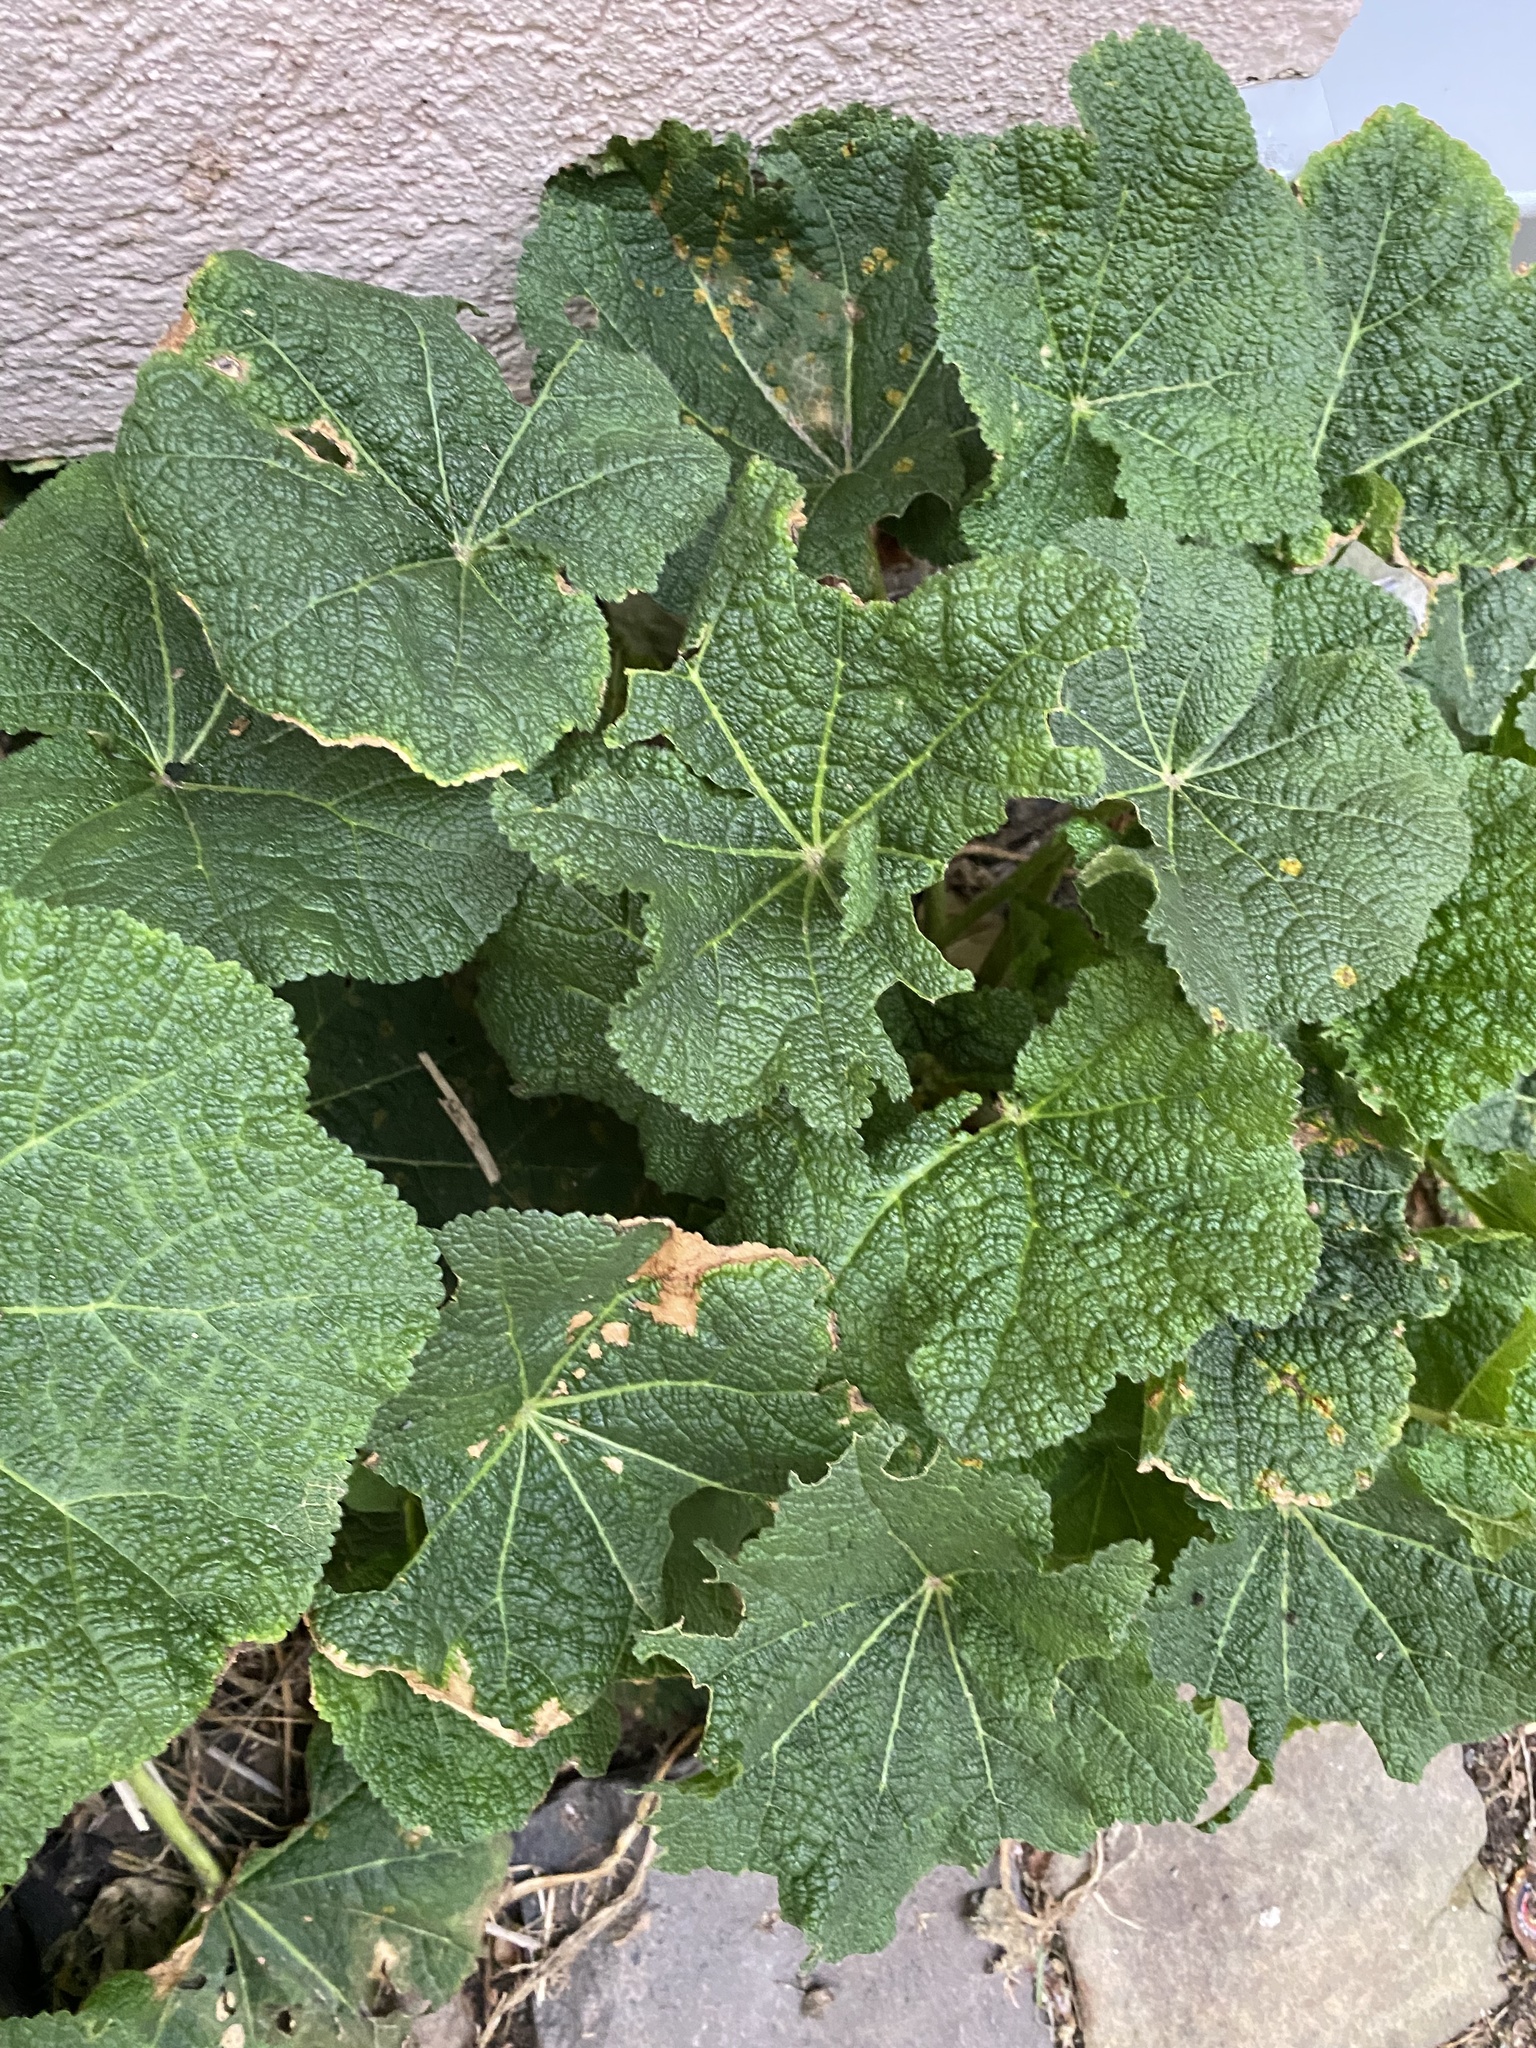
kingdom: Plantae
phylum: Tracheophyta
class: Magnoliopsida
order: Malvales
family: Malvaceae
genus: Alcea
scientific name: Alcea rosea
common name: Hollyhock
